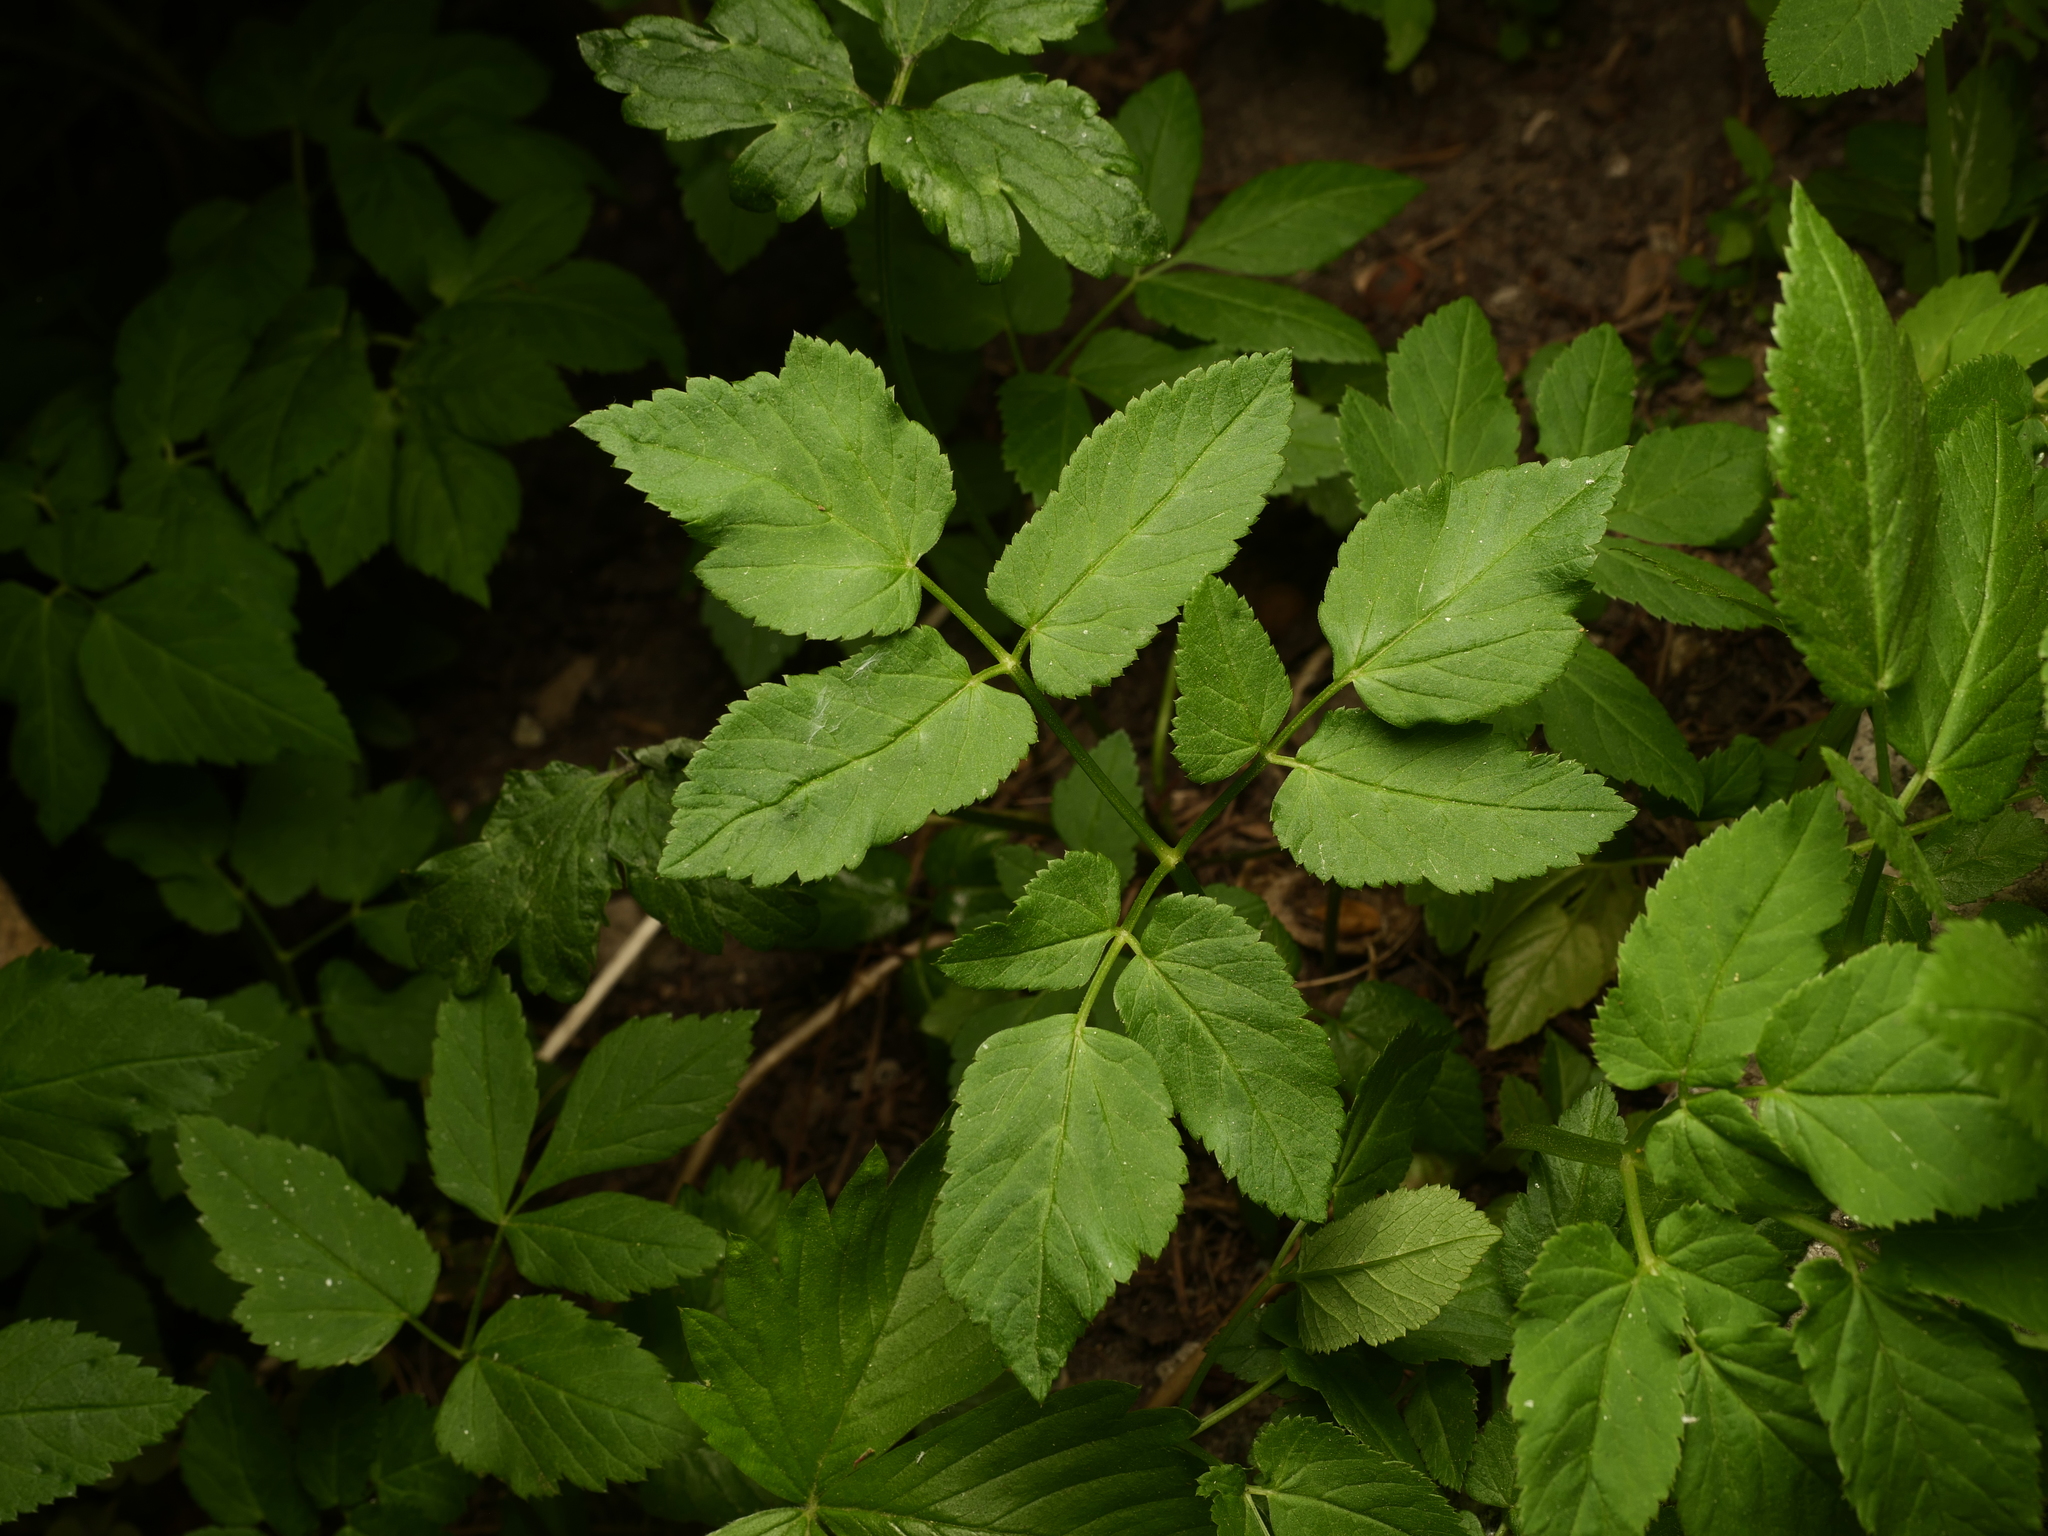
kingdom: Plantae
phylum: Tracheophyta
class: Magnoliopsida
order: Apiales
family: Apiaceae
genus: Aegopodium
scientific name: Aegopodium podagraria
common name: Ground-elder
